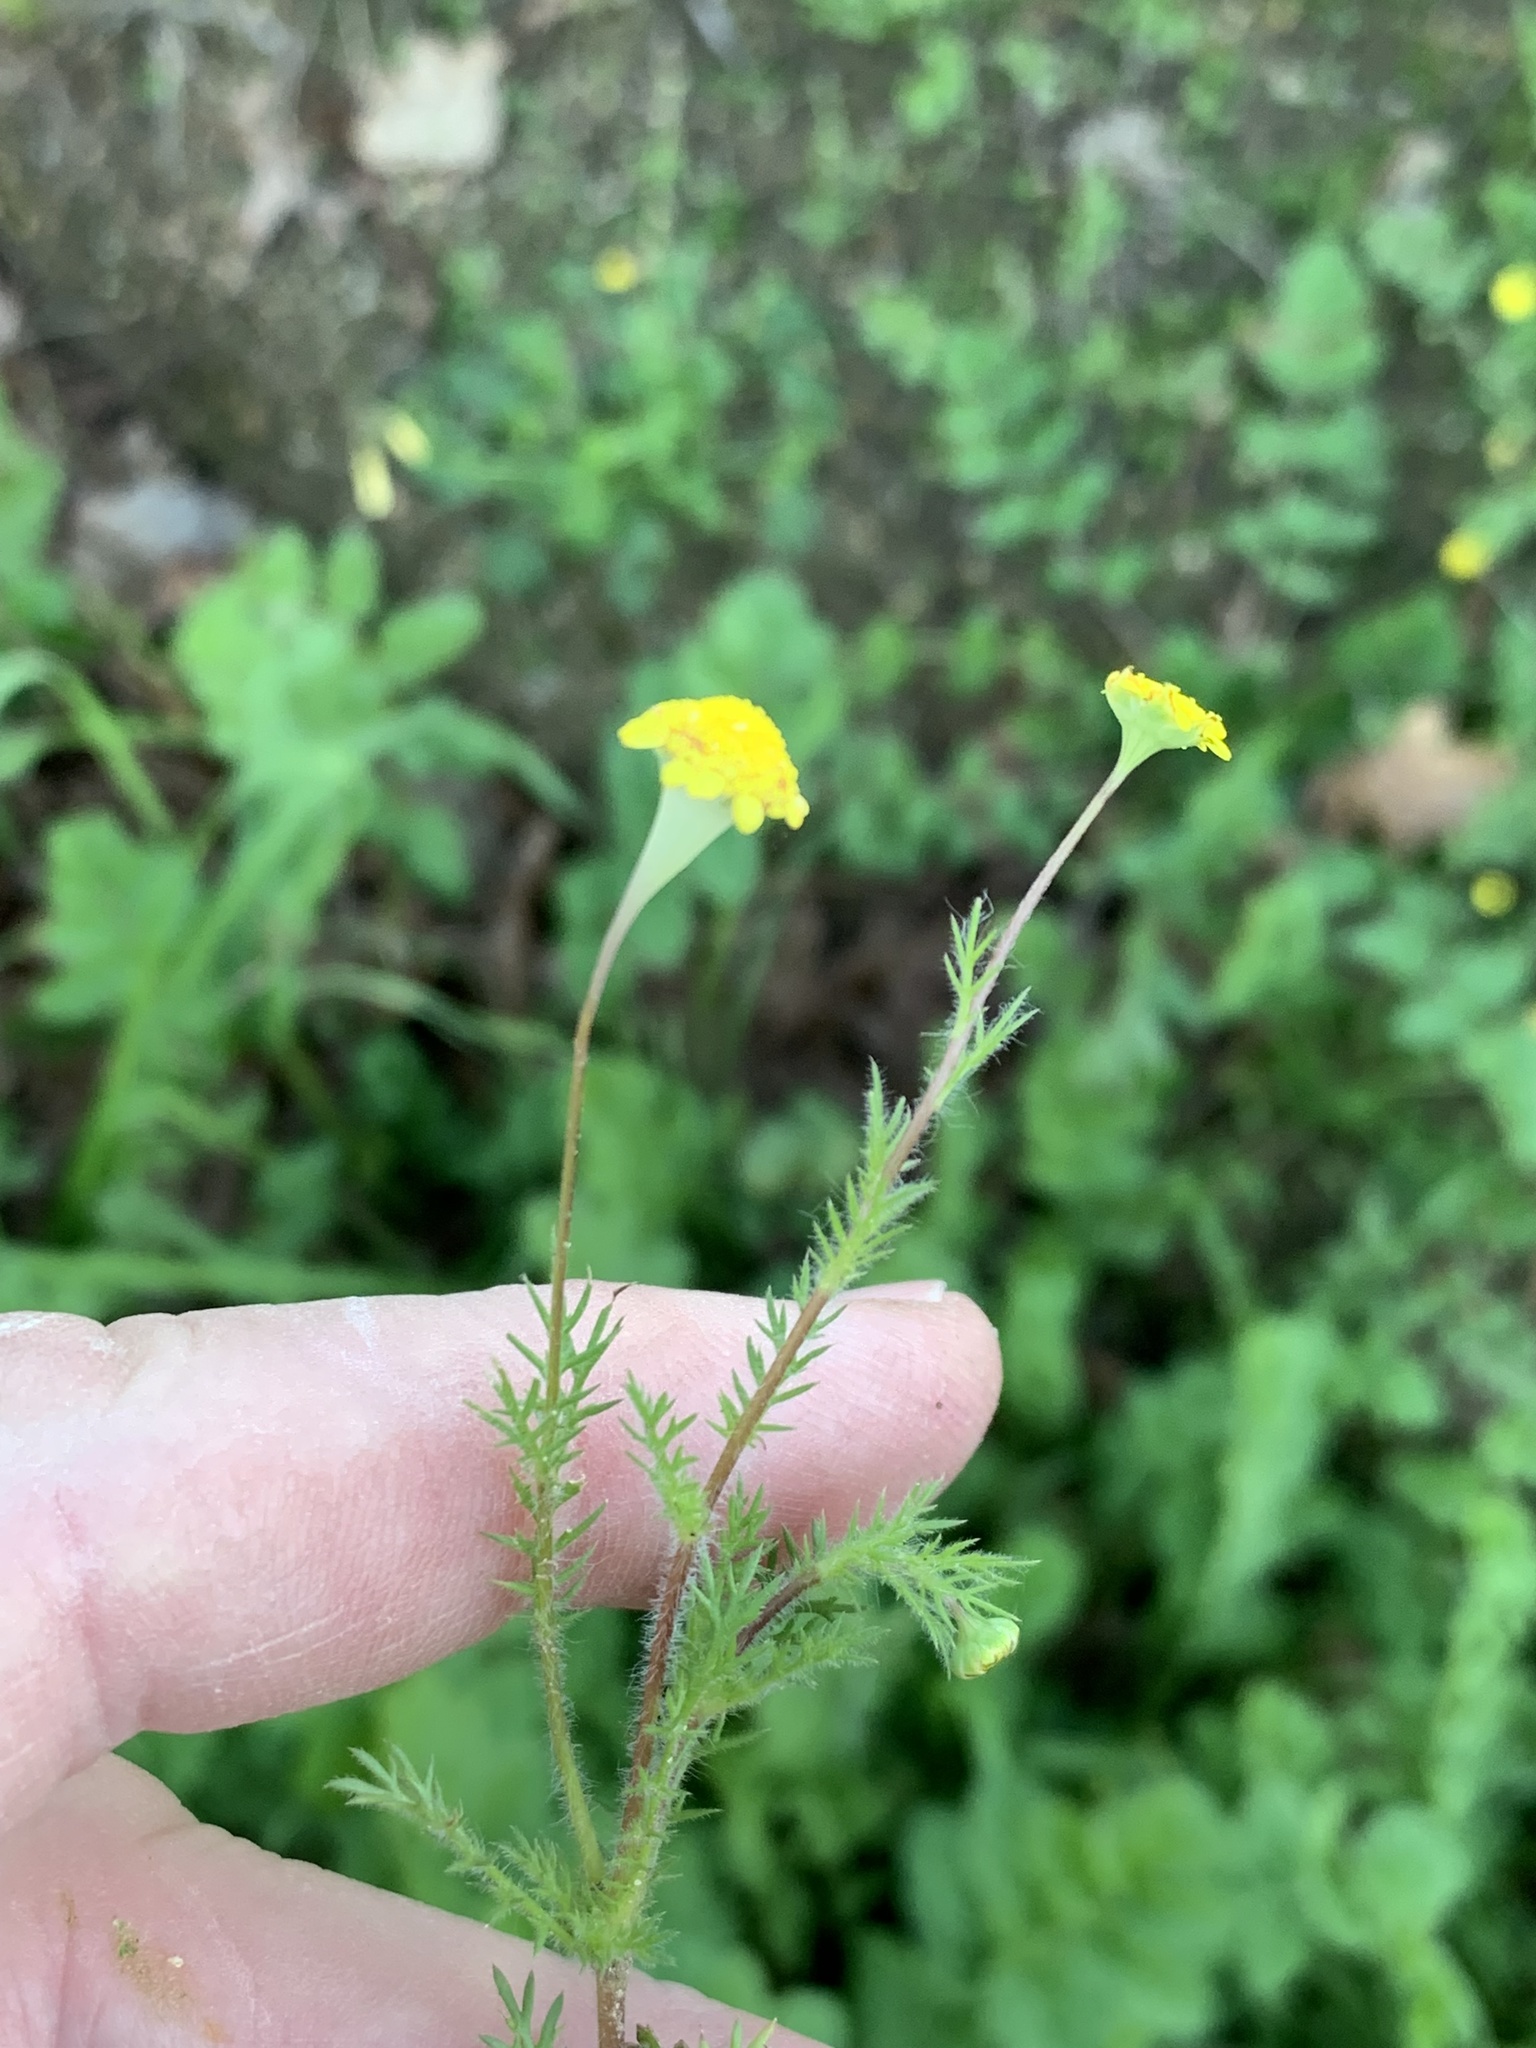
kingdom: Plantae
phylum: Tracheophyta
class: Magnoliopsida
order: Asterales
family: Asteraceae
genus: Cotula
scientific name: Cotula pruinosa
